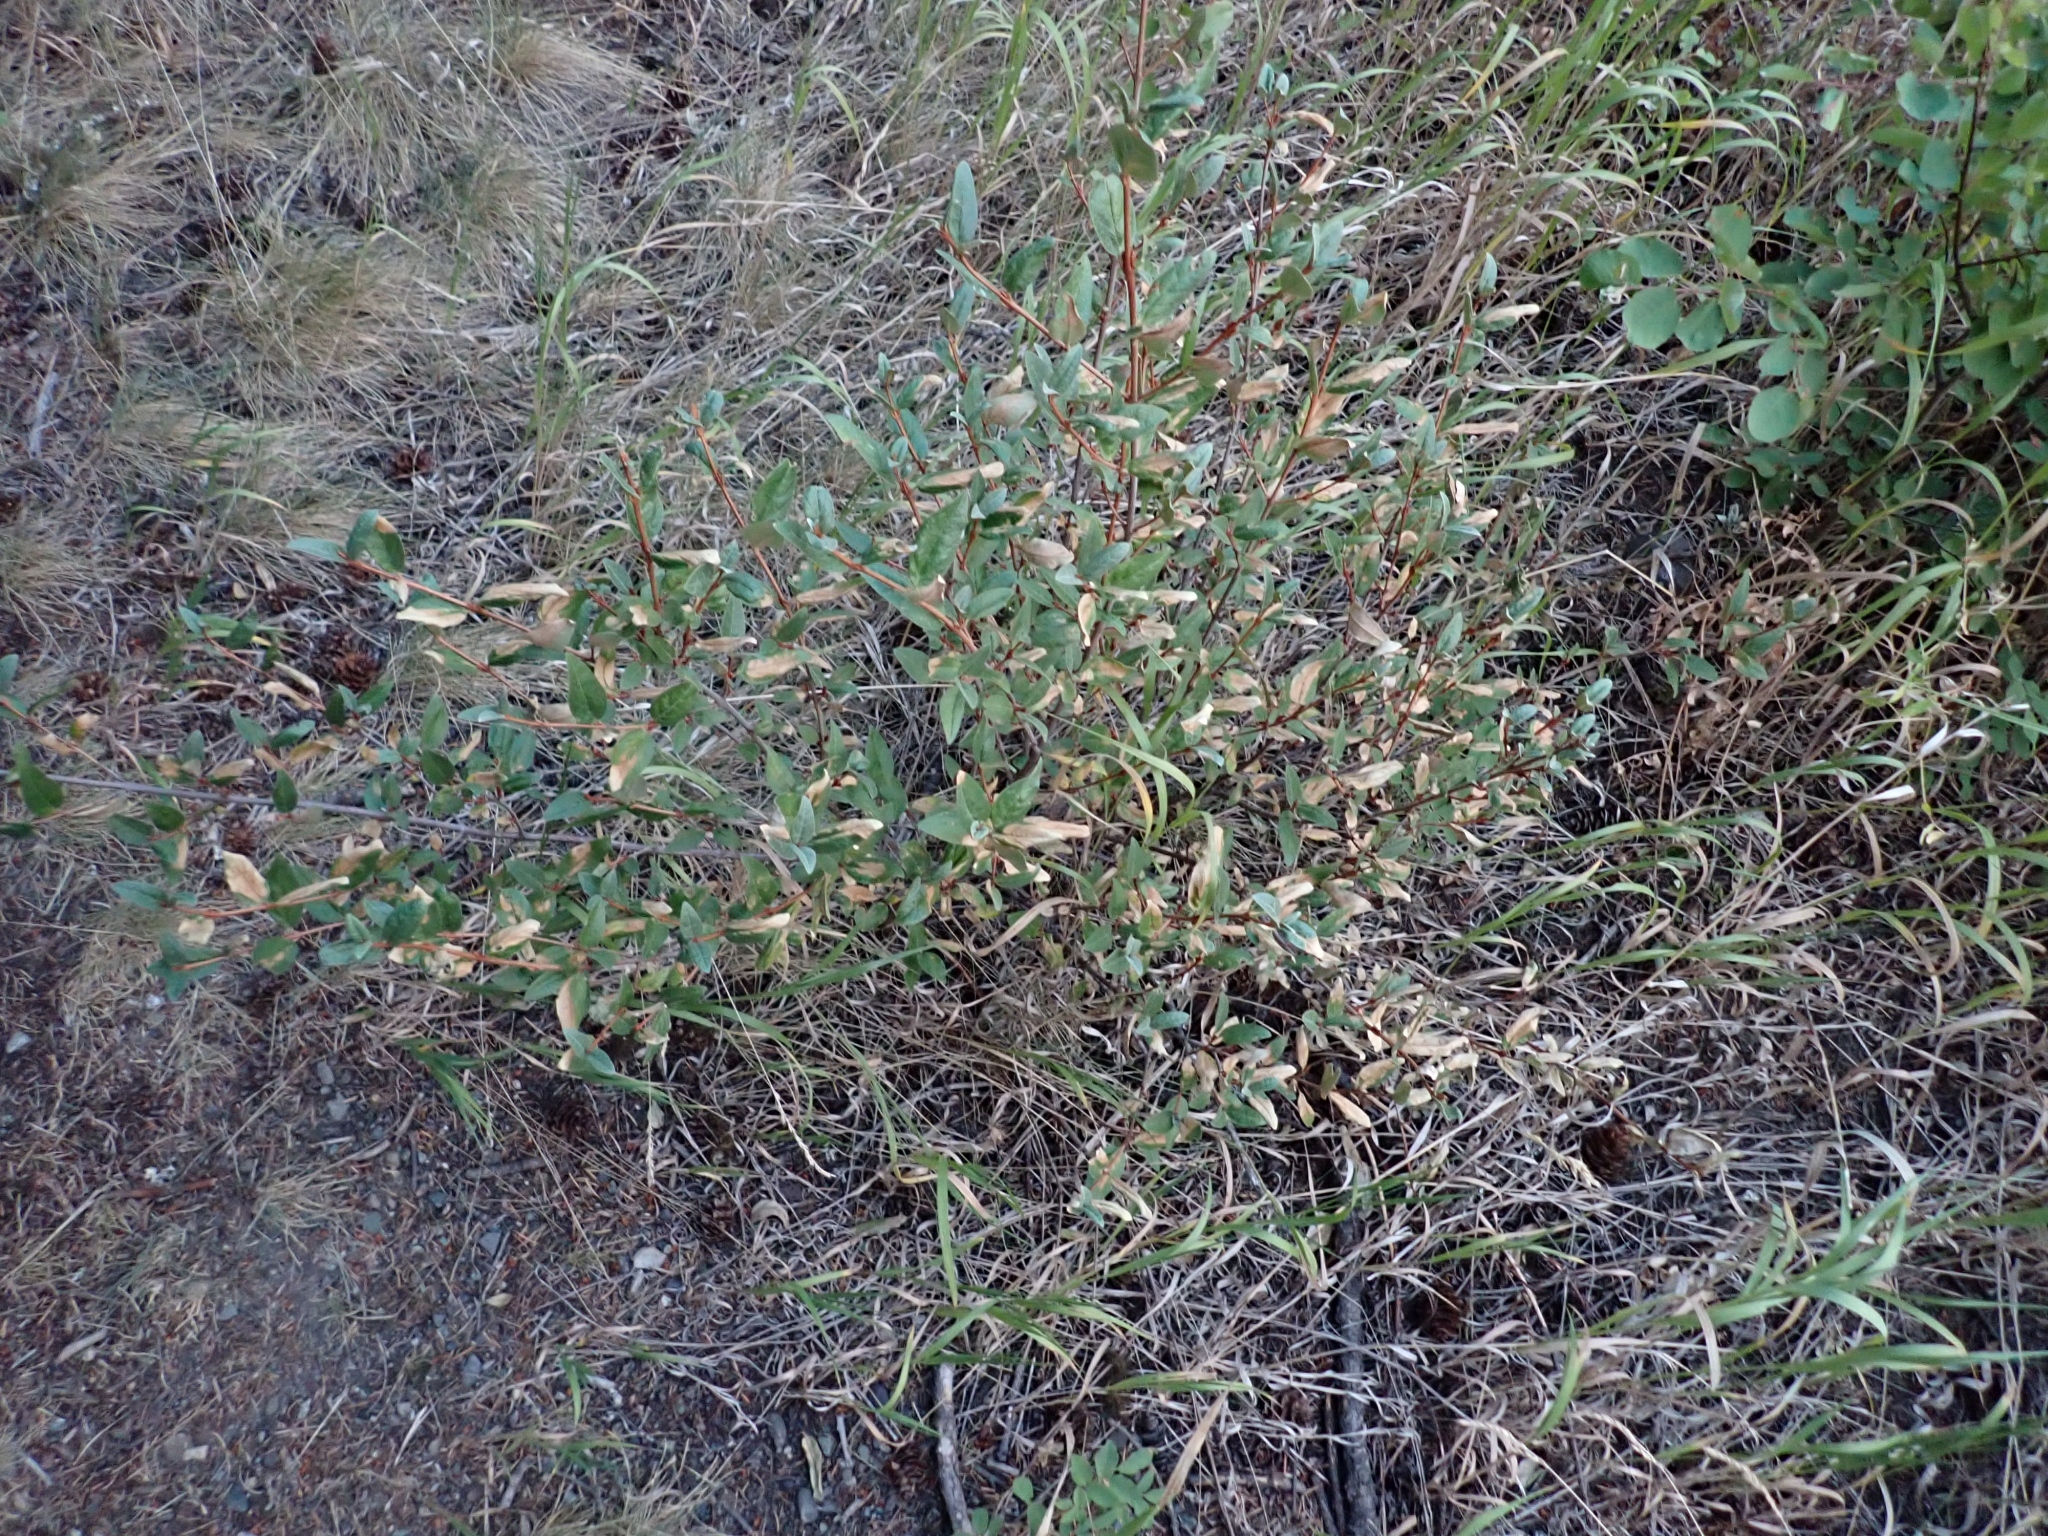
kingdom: Plantae
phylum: Tracheophyta
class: Magnoliopsida
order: Rosales
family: Elaeagnaceae
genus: Shepherdia
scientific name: Shepherdia canadensis
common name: Soapberry
